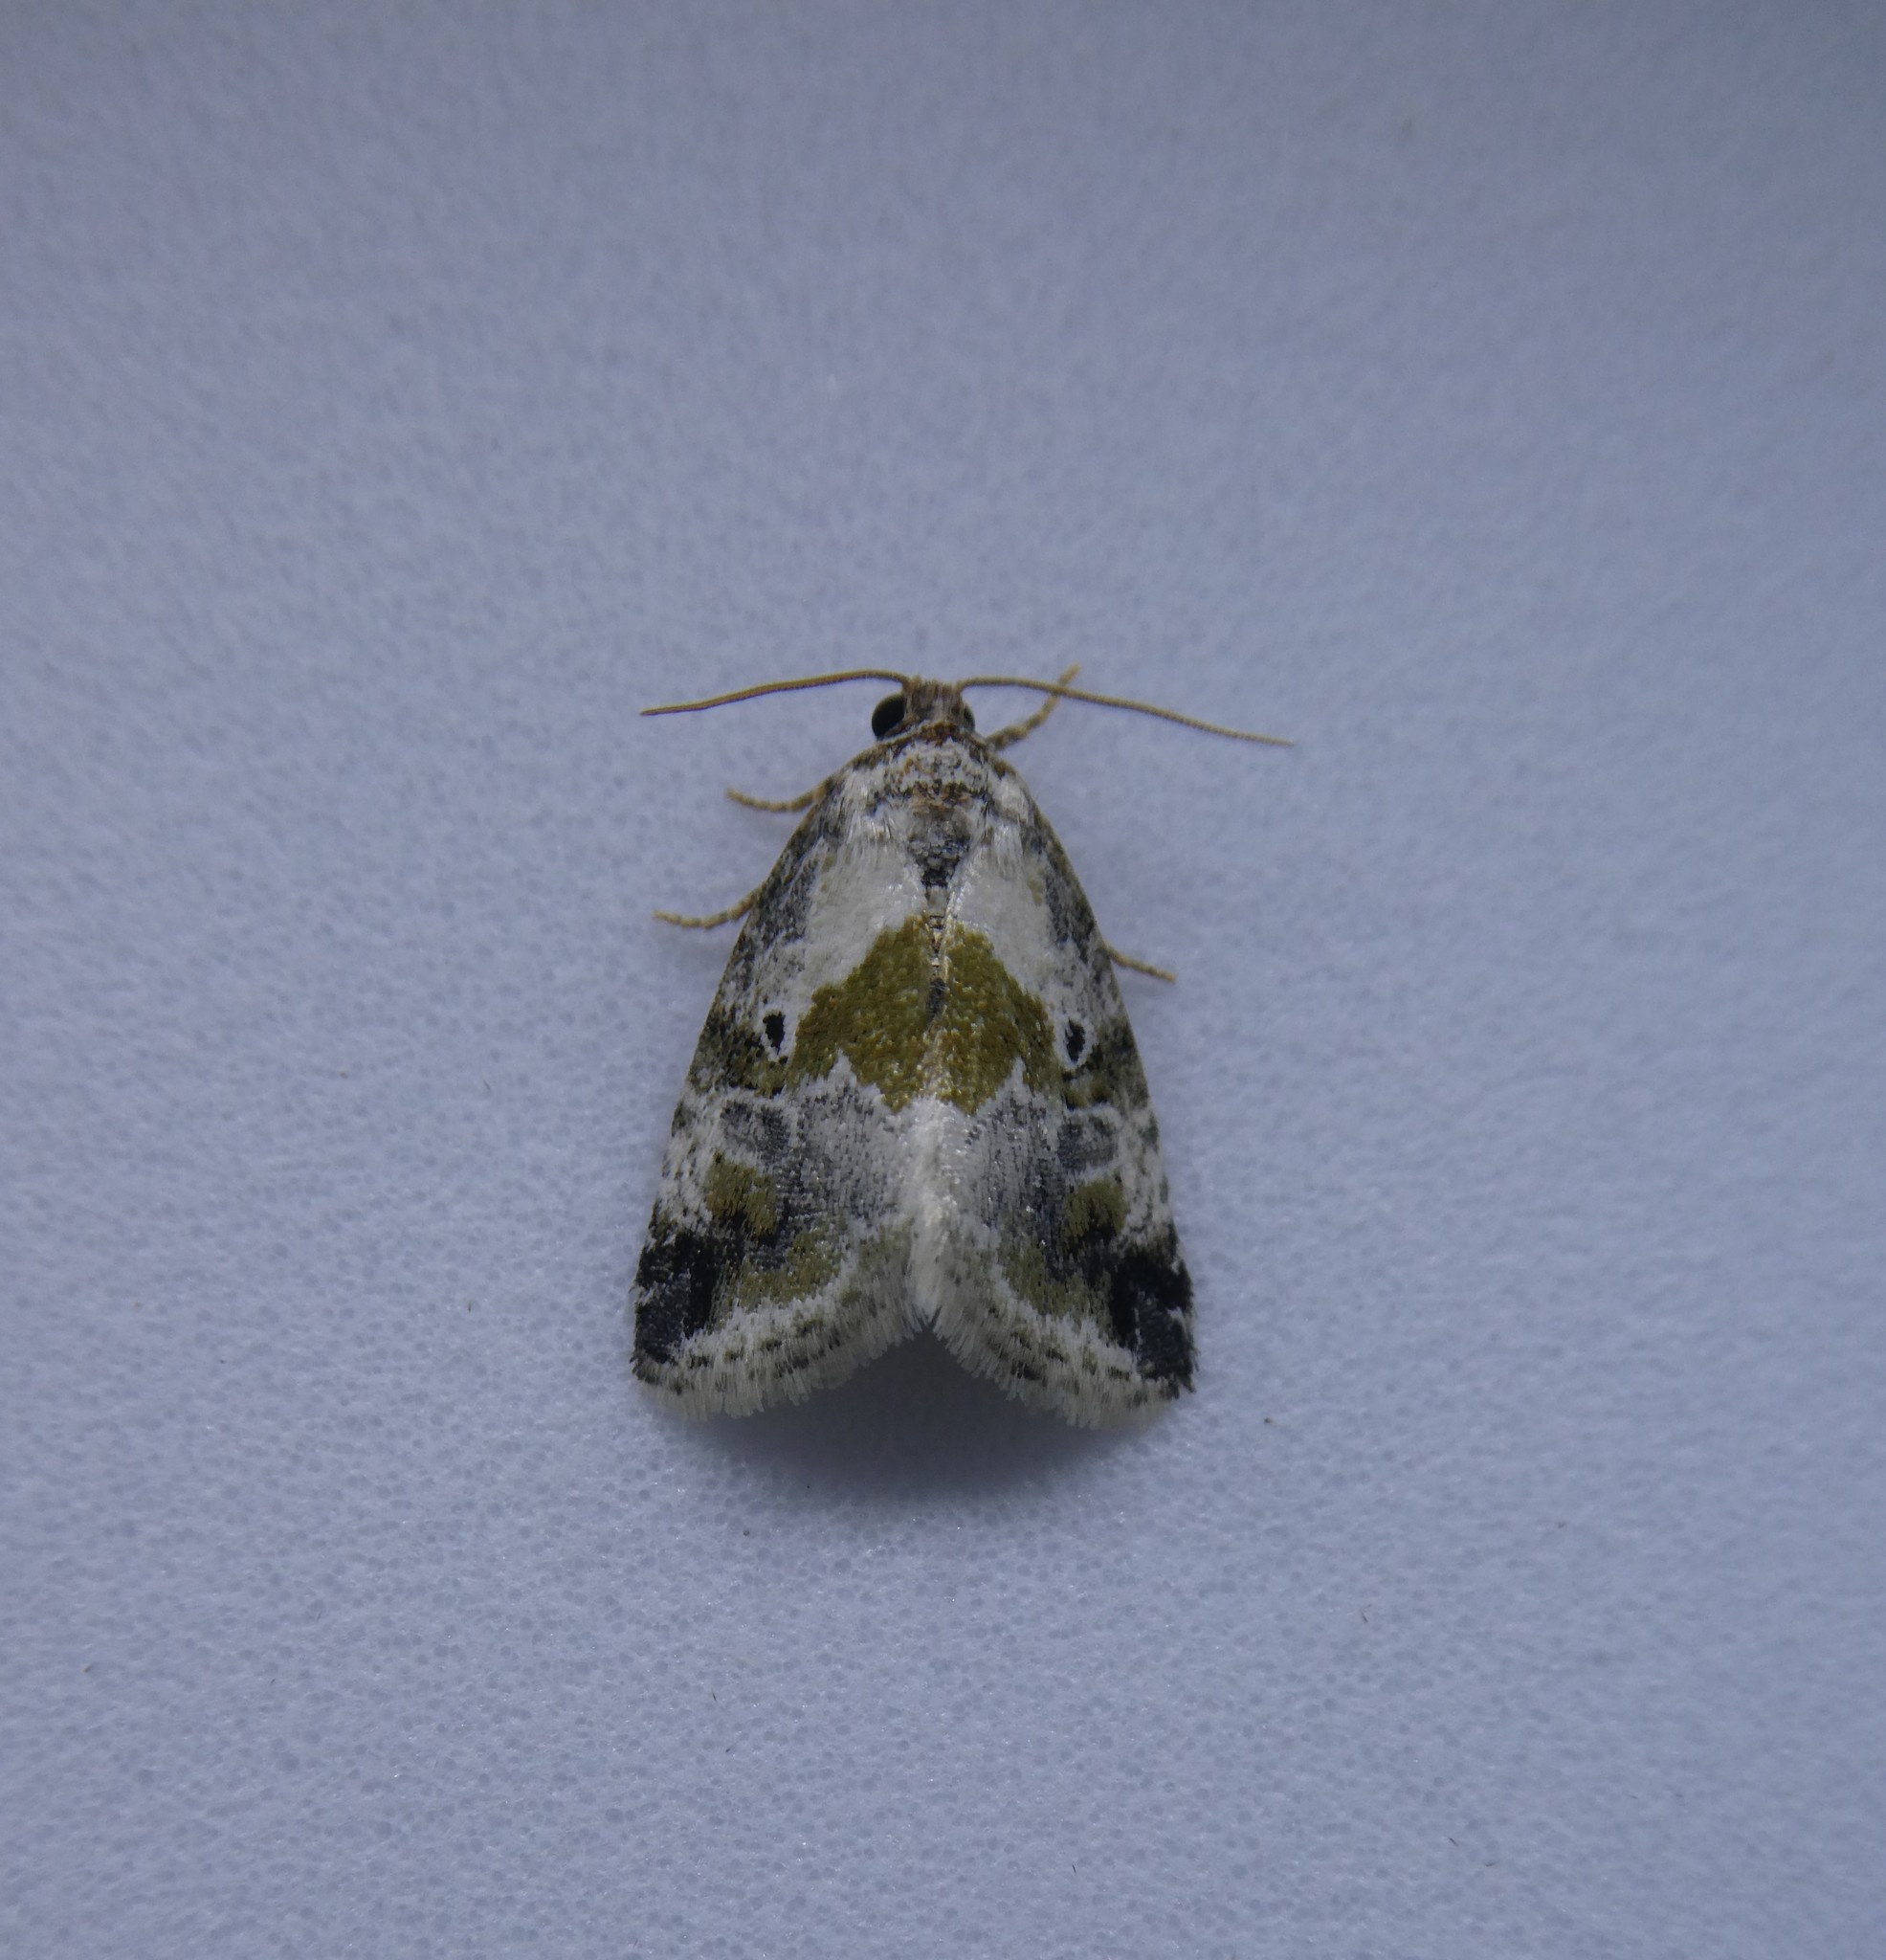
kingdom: Animalia
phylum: Arthropoda
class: Insecta
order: Lepidoptera
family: Noctuidae
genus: Maliattha
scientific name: Maliattha synochitis
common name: Black-dotted glyph
